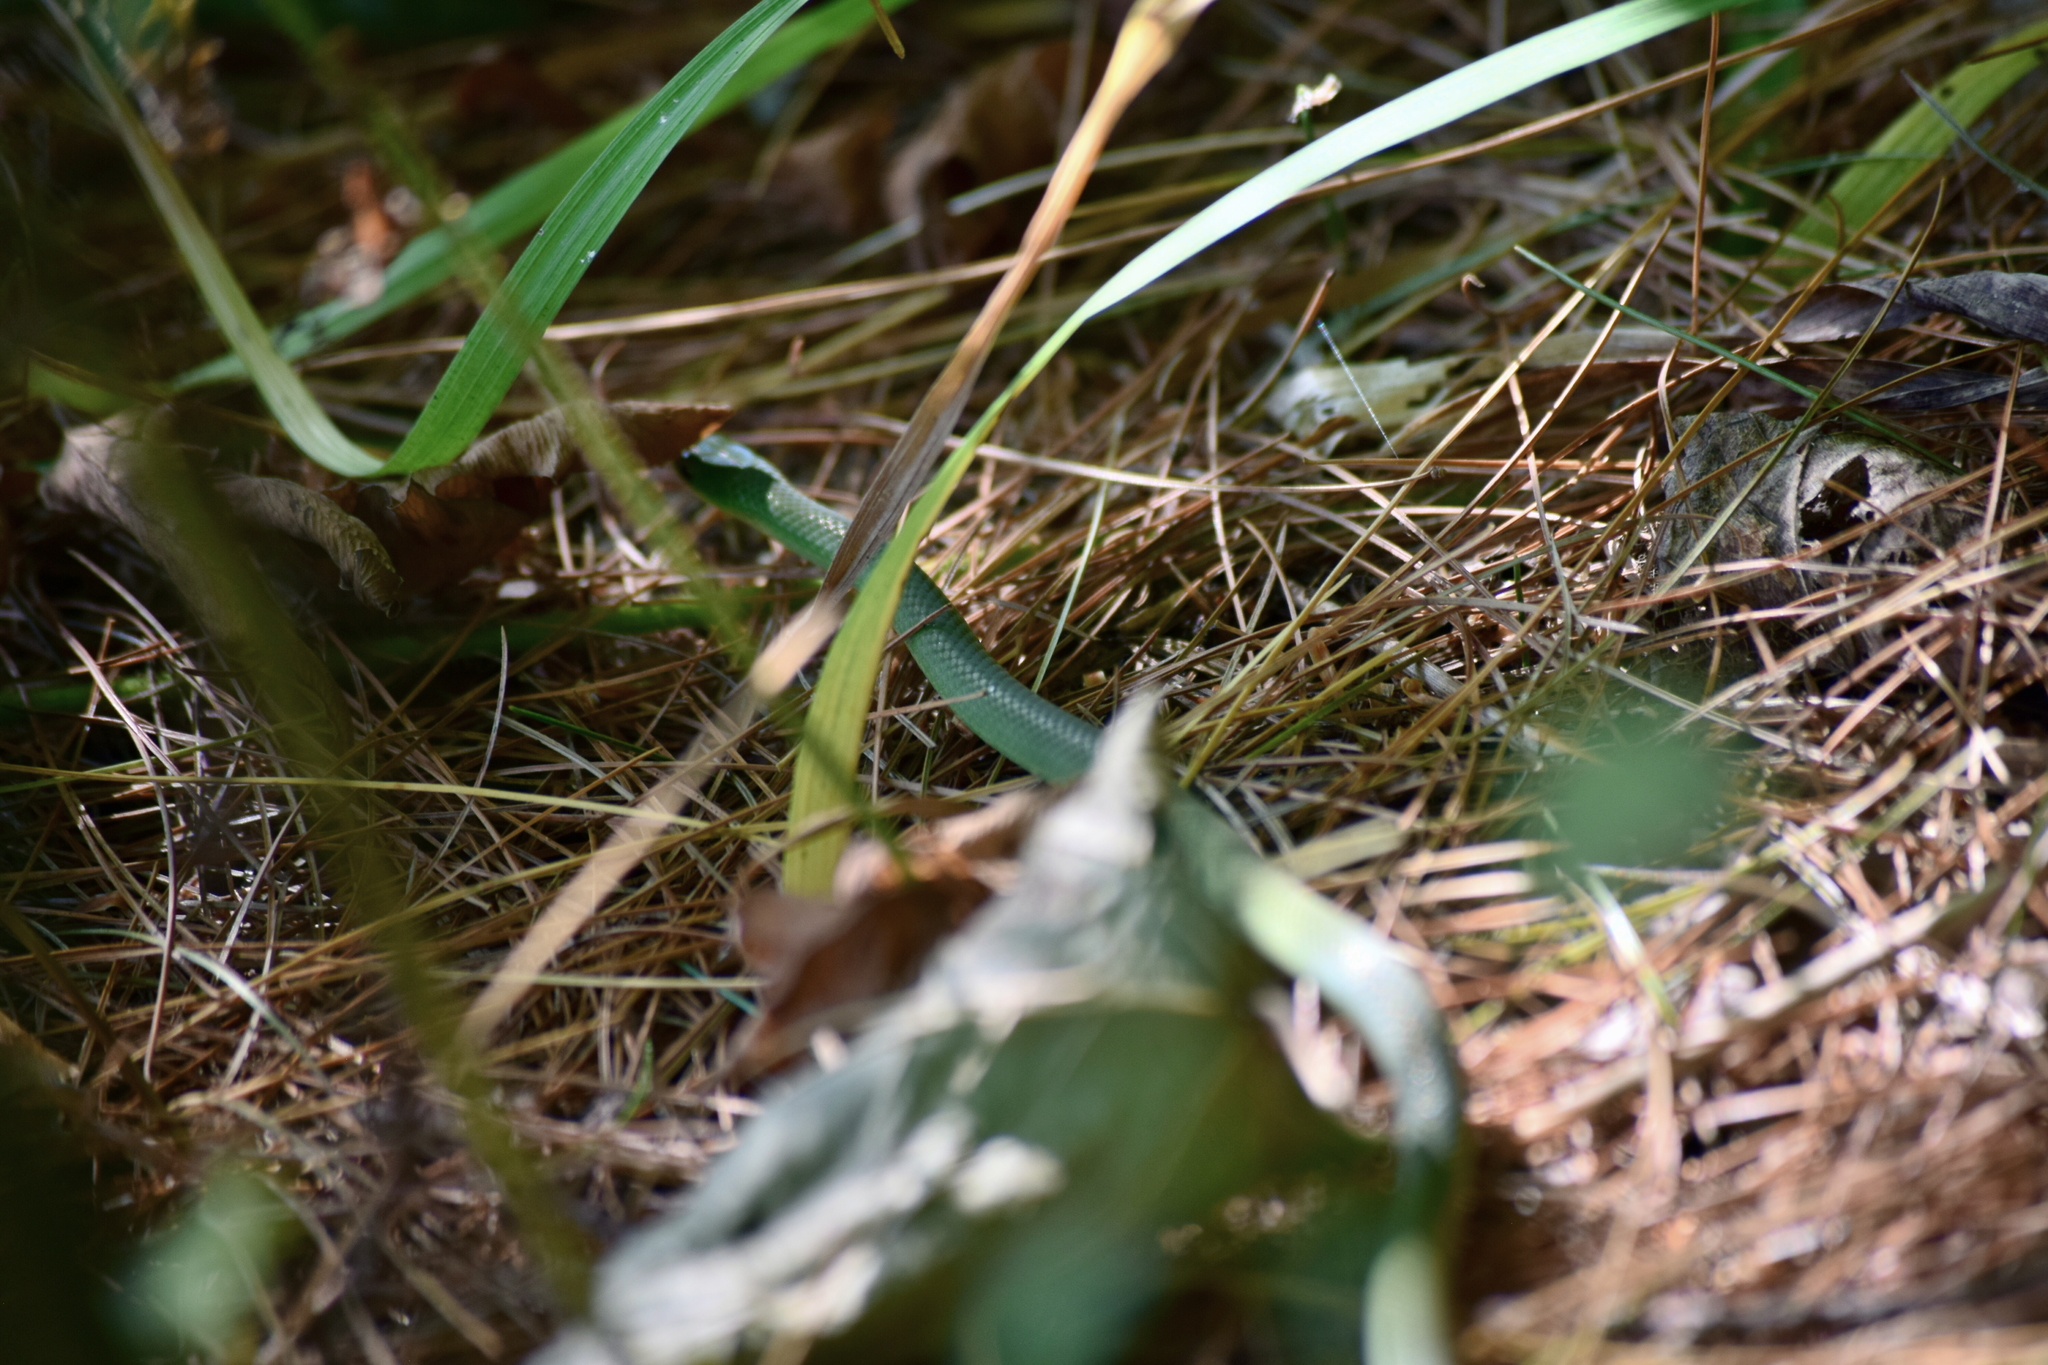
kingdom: Animalia
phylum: Chordata
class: Squamata
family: Colubridae
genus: Opheodrys
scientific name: Opheodrys vernalis
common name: Smooth green snake
